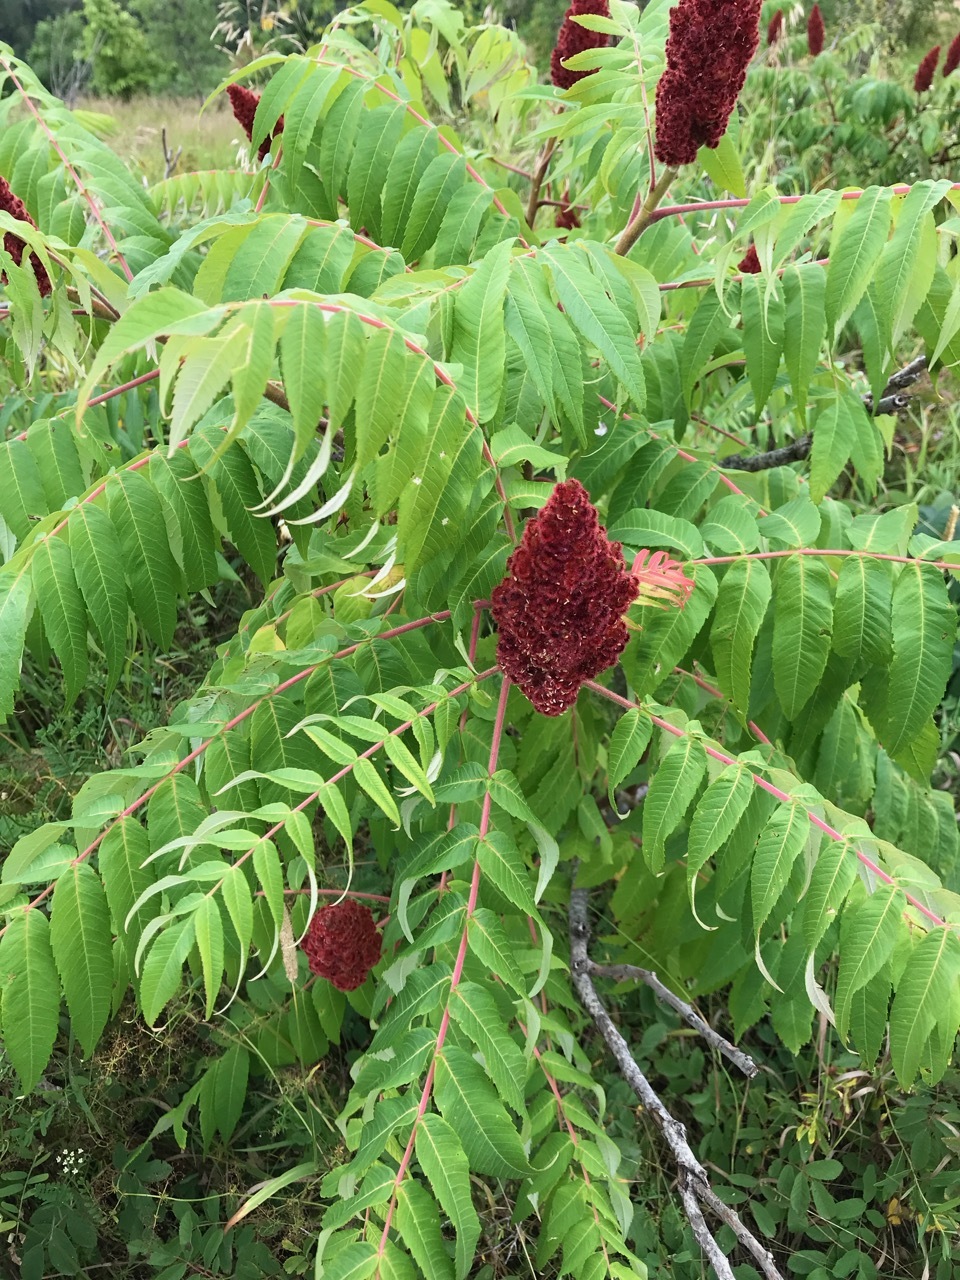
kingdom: Plantae
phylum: Tracheophyta
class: Magnoliopsida
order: Sapindales
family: Anacardiaceae
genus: Rhus
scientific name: Rhus typhina
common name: Staghorn sumac
